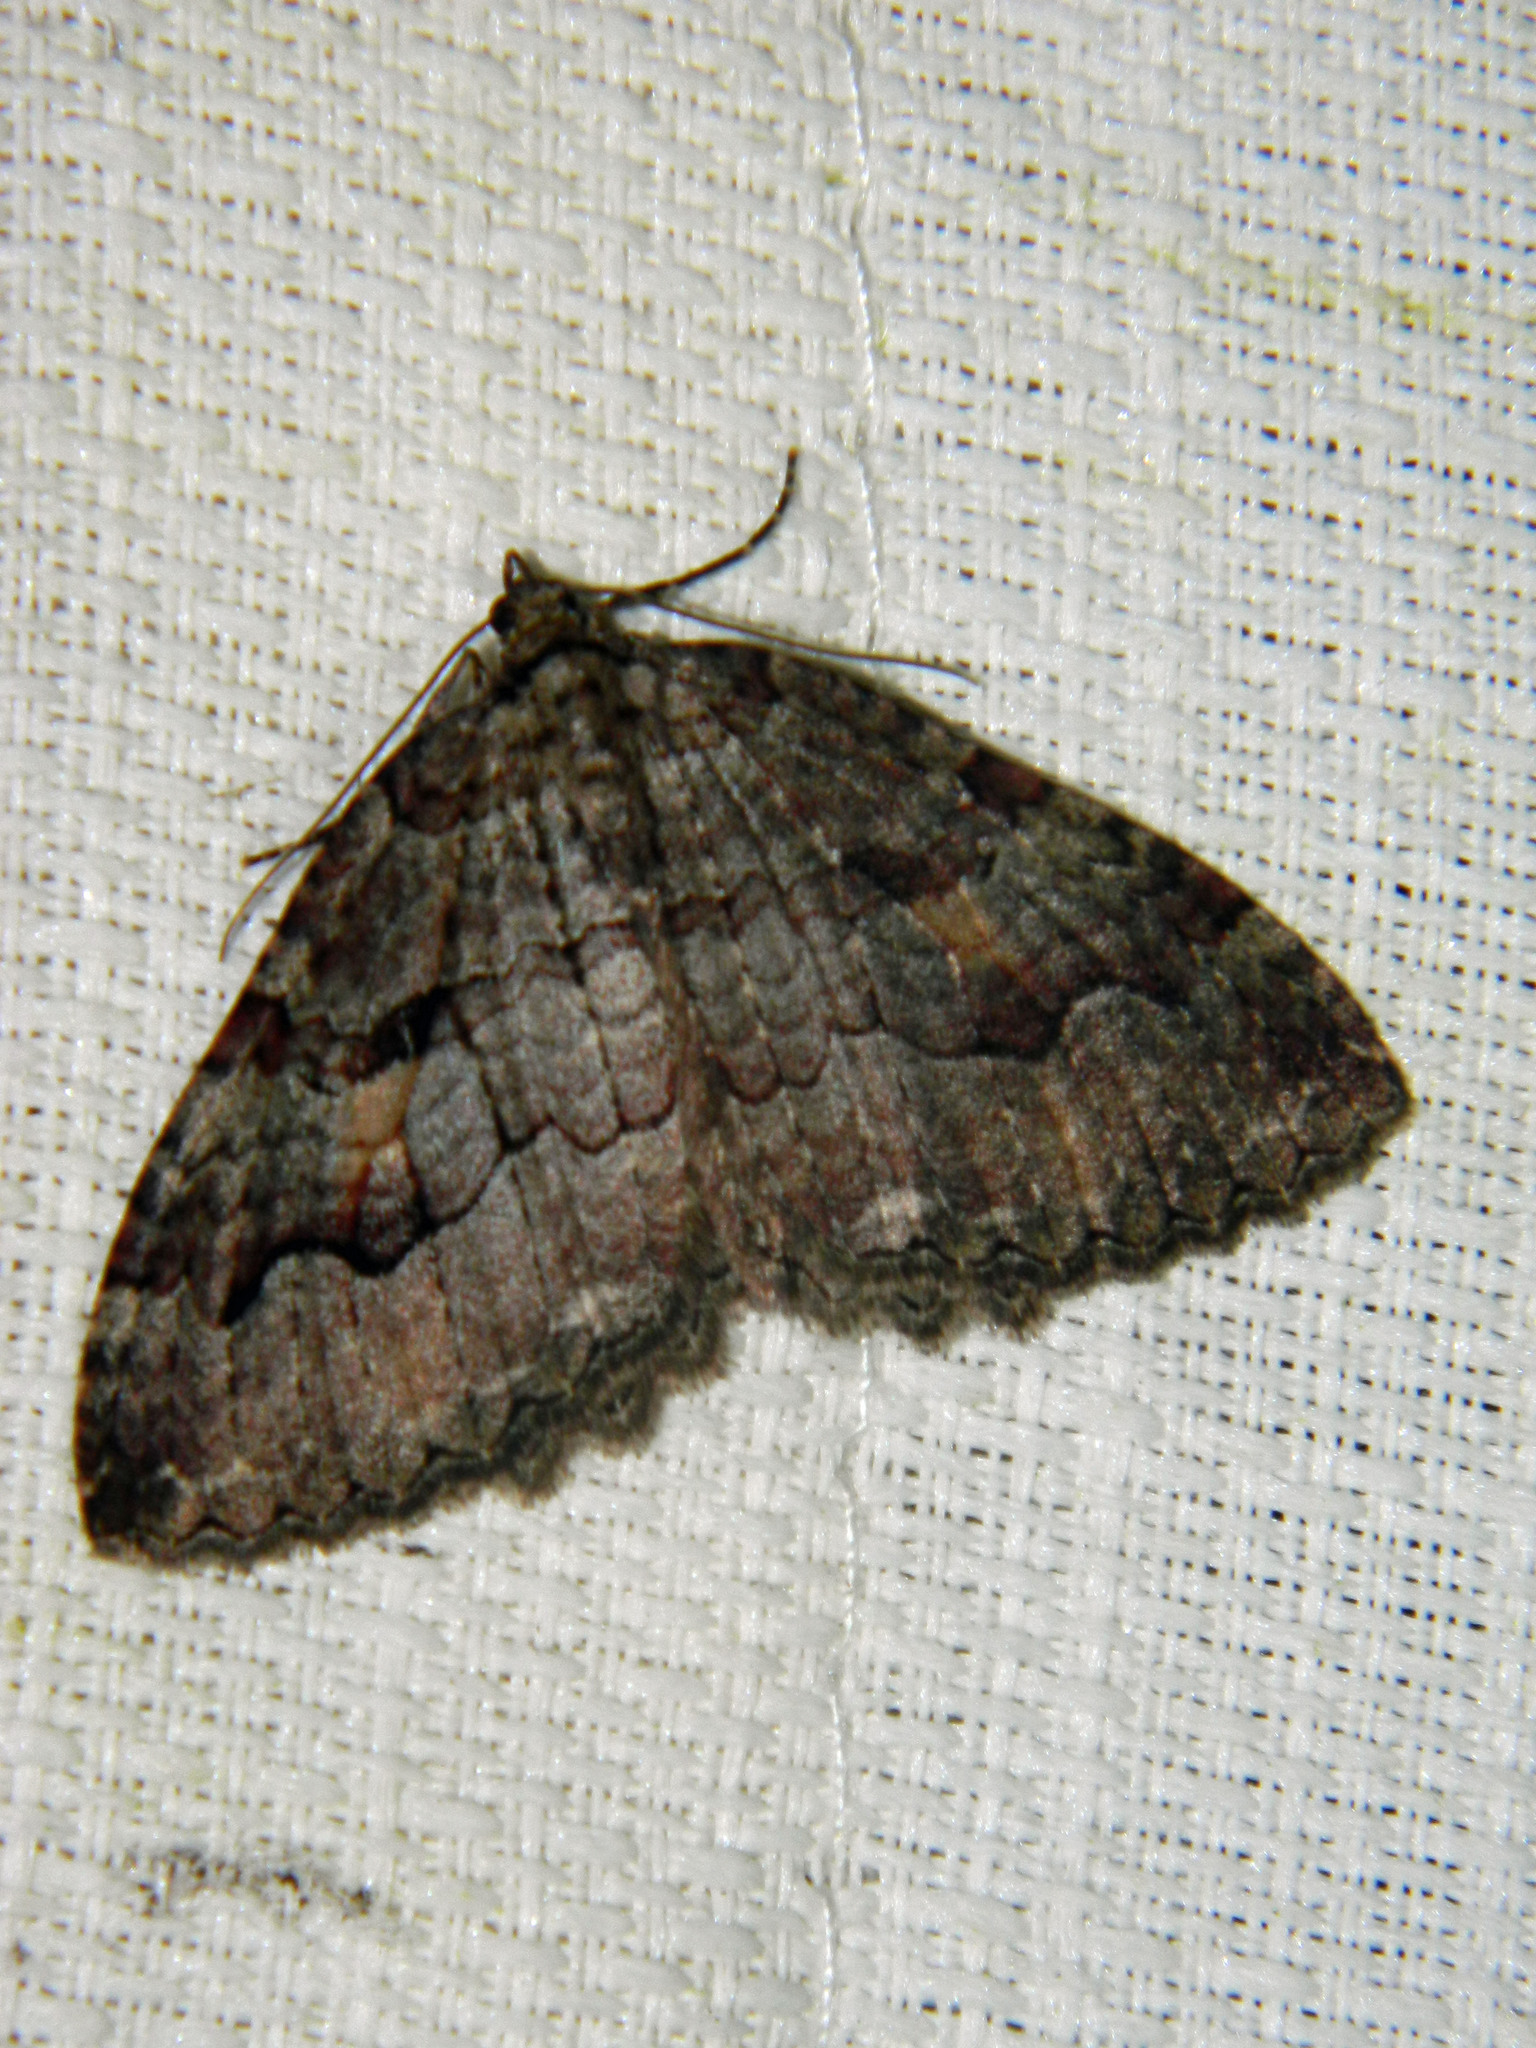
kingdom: Animalia
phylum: Arthropoda
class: Insecta
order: Lepidoptera
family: Geometridae
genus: Triphosa
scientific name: Triphosa haesitata
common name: Tissue moth
